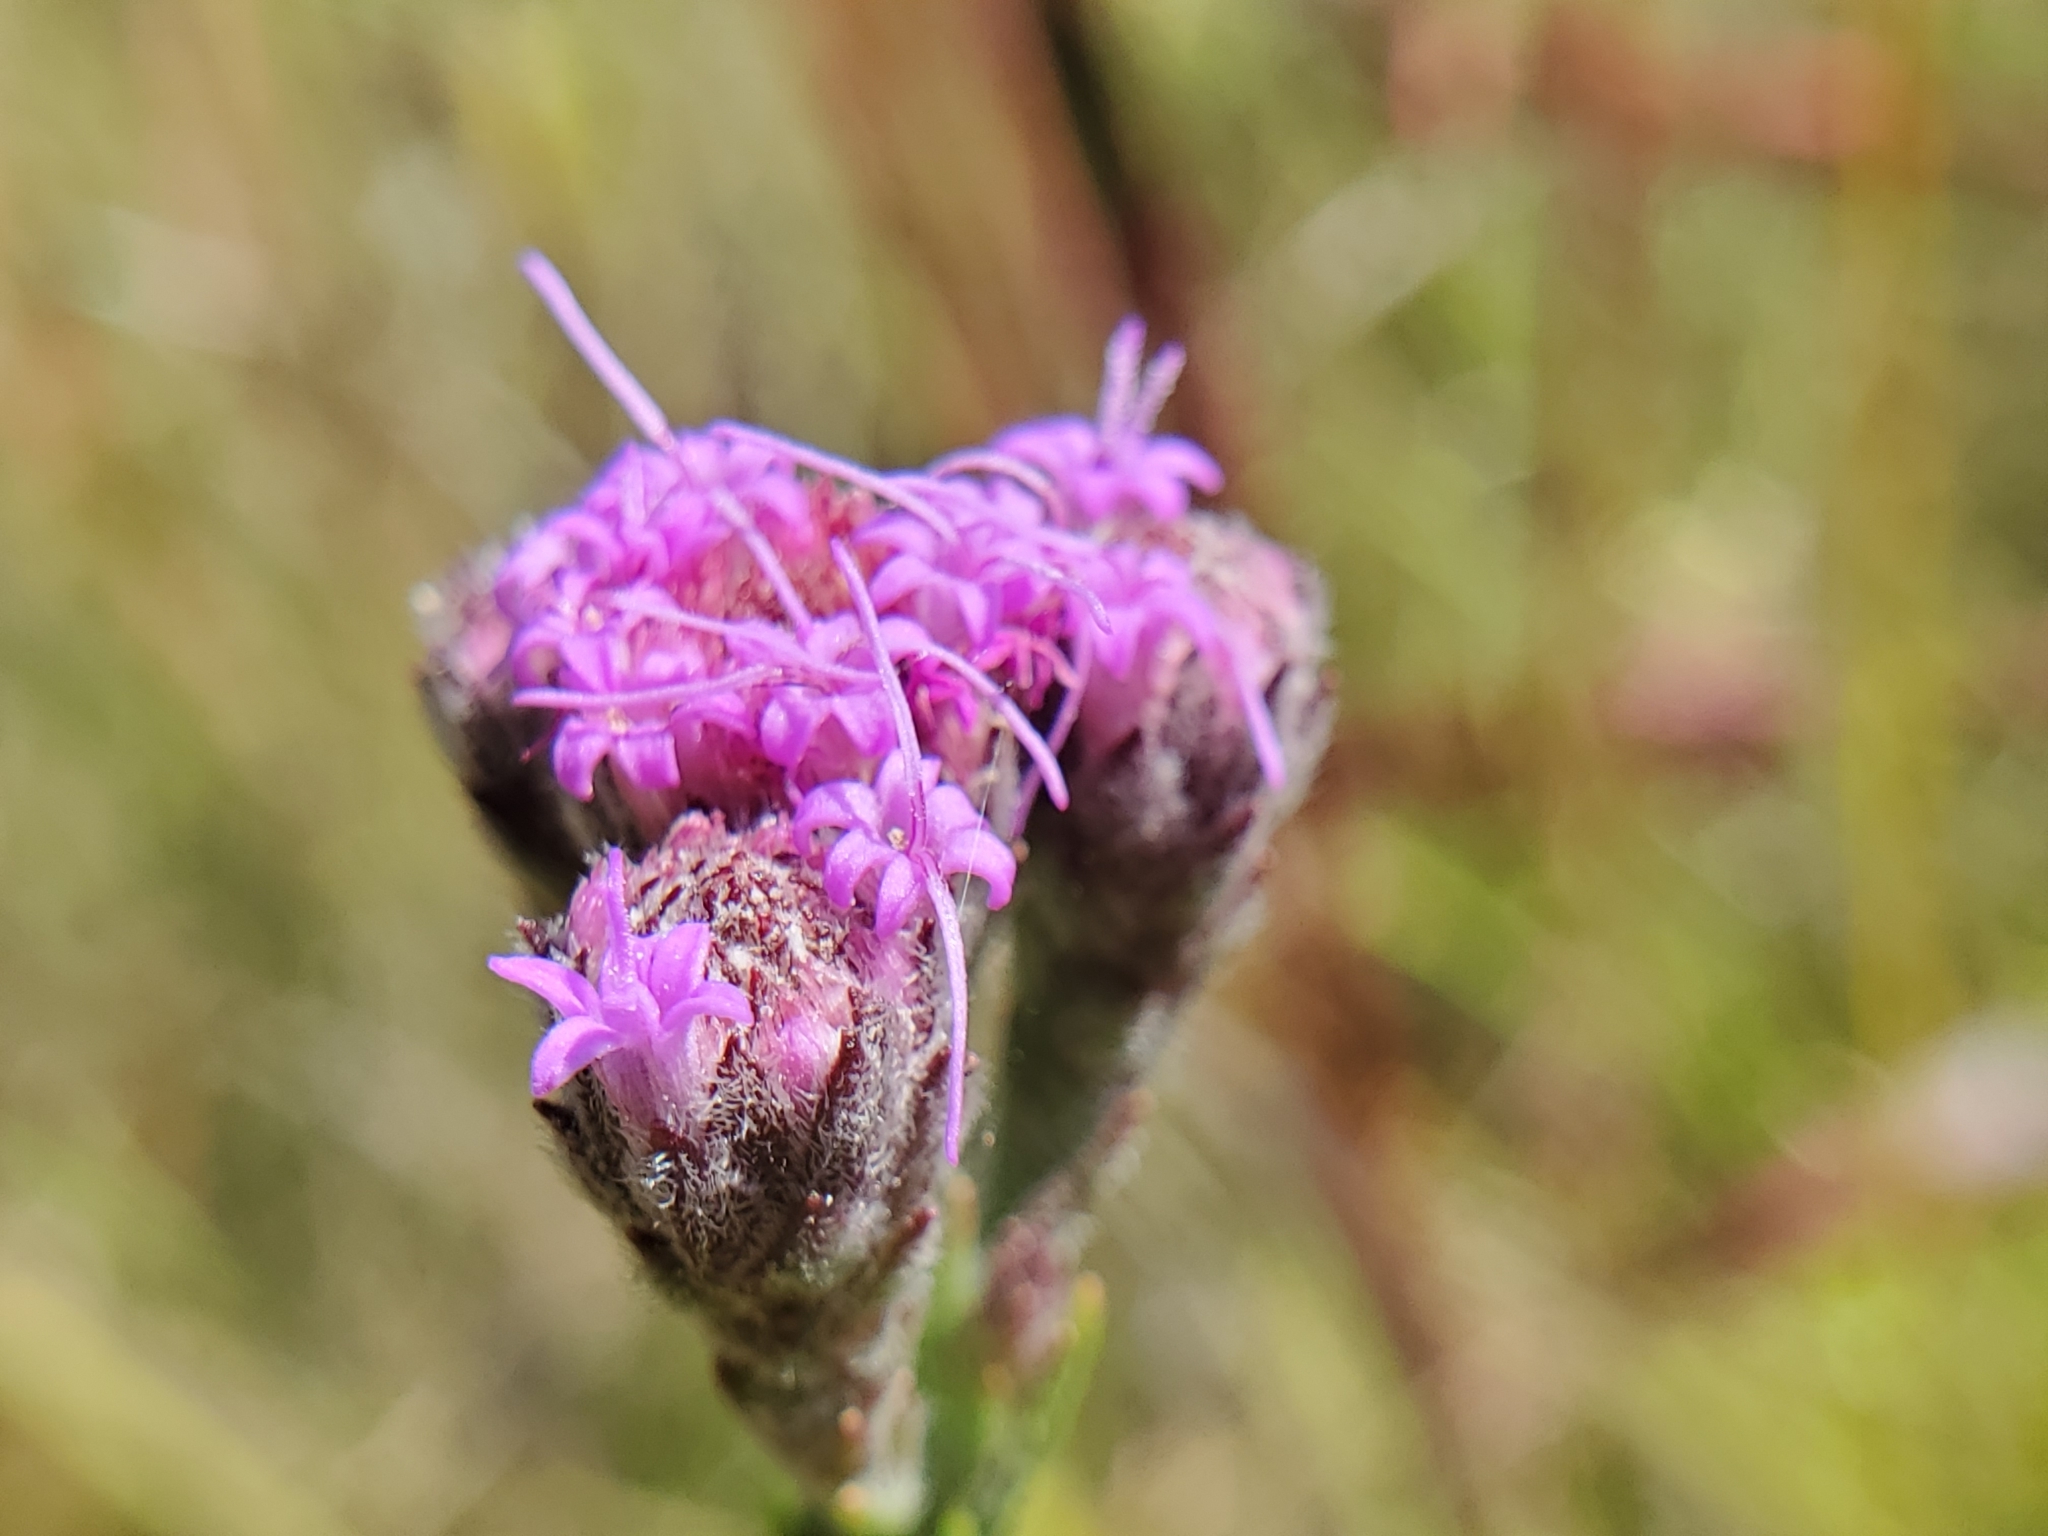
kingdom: Plantae
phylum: Tracheophyta
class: Magnoliopsida
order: Asterales
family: Asteraceae
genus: Carphephorus
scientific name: Carphephorus pseudoliatris
